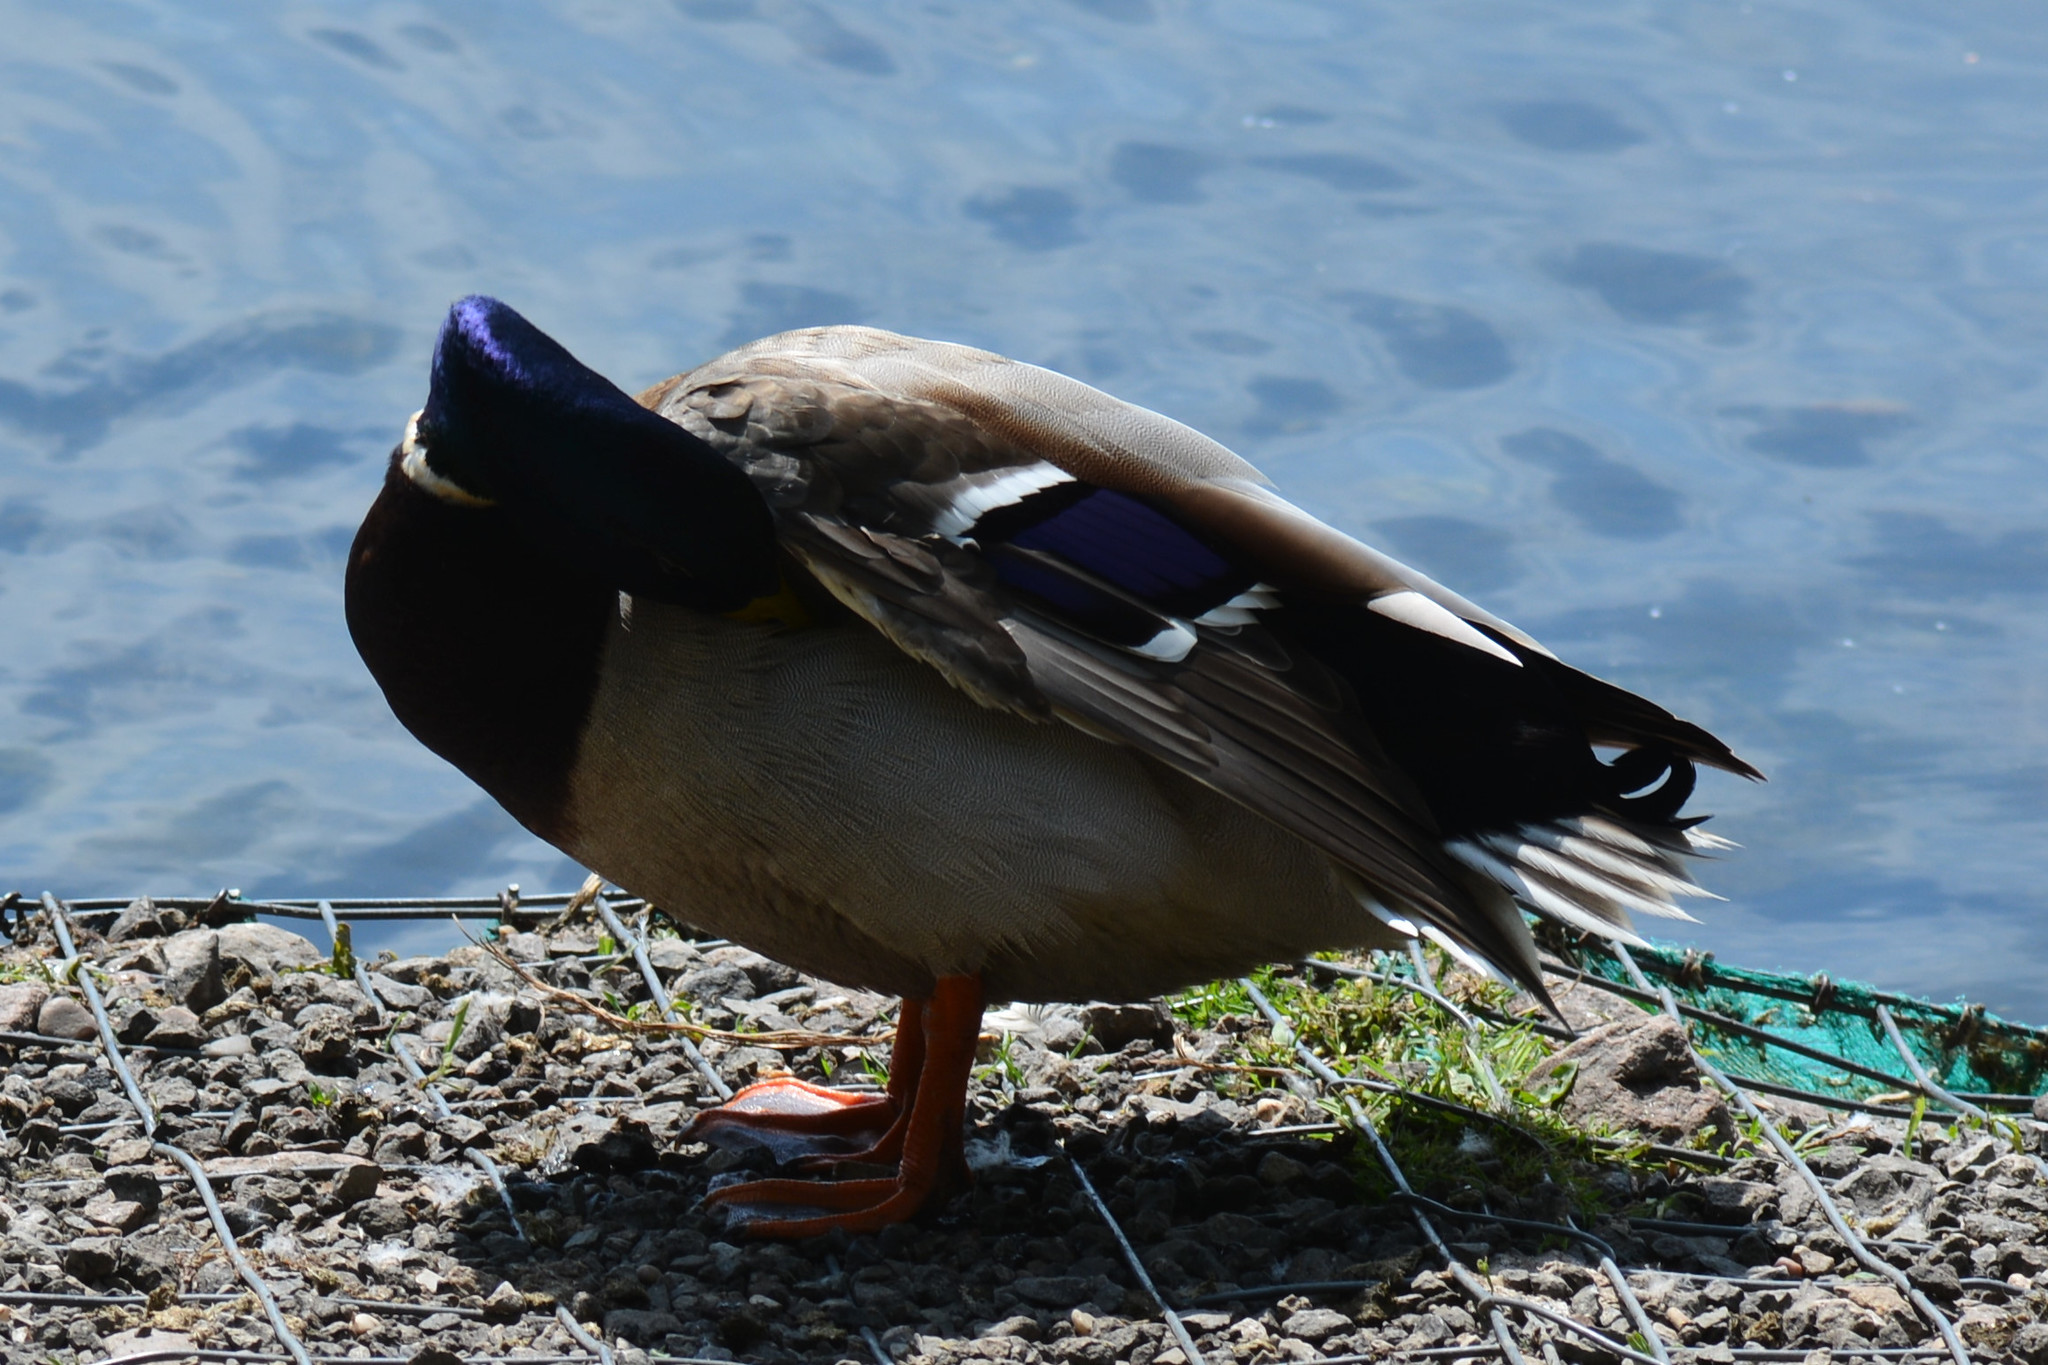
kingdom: Animalia
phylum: Chordata
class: Aves
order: Anseriformes
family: Anatidae
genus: Anas
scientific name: Anas platyrhynchos
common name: Mallard
